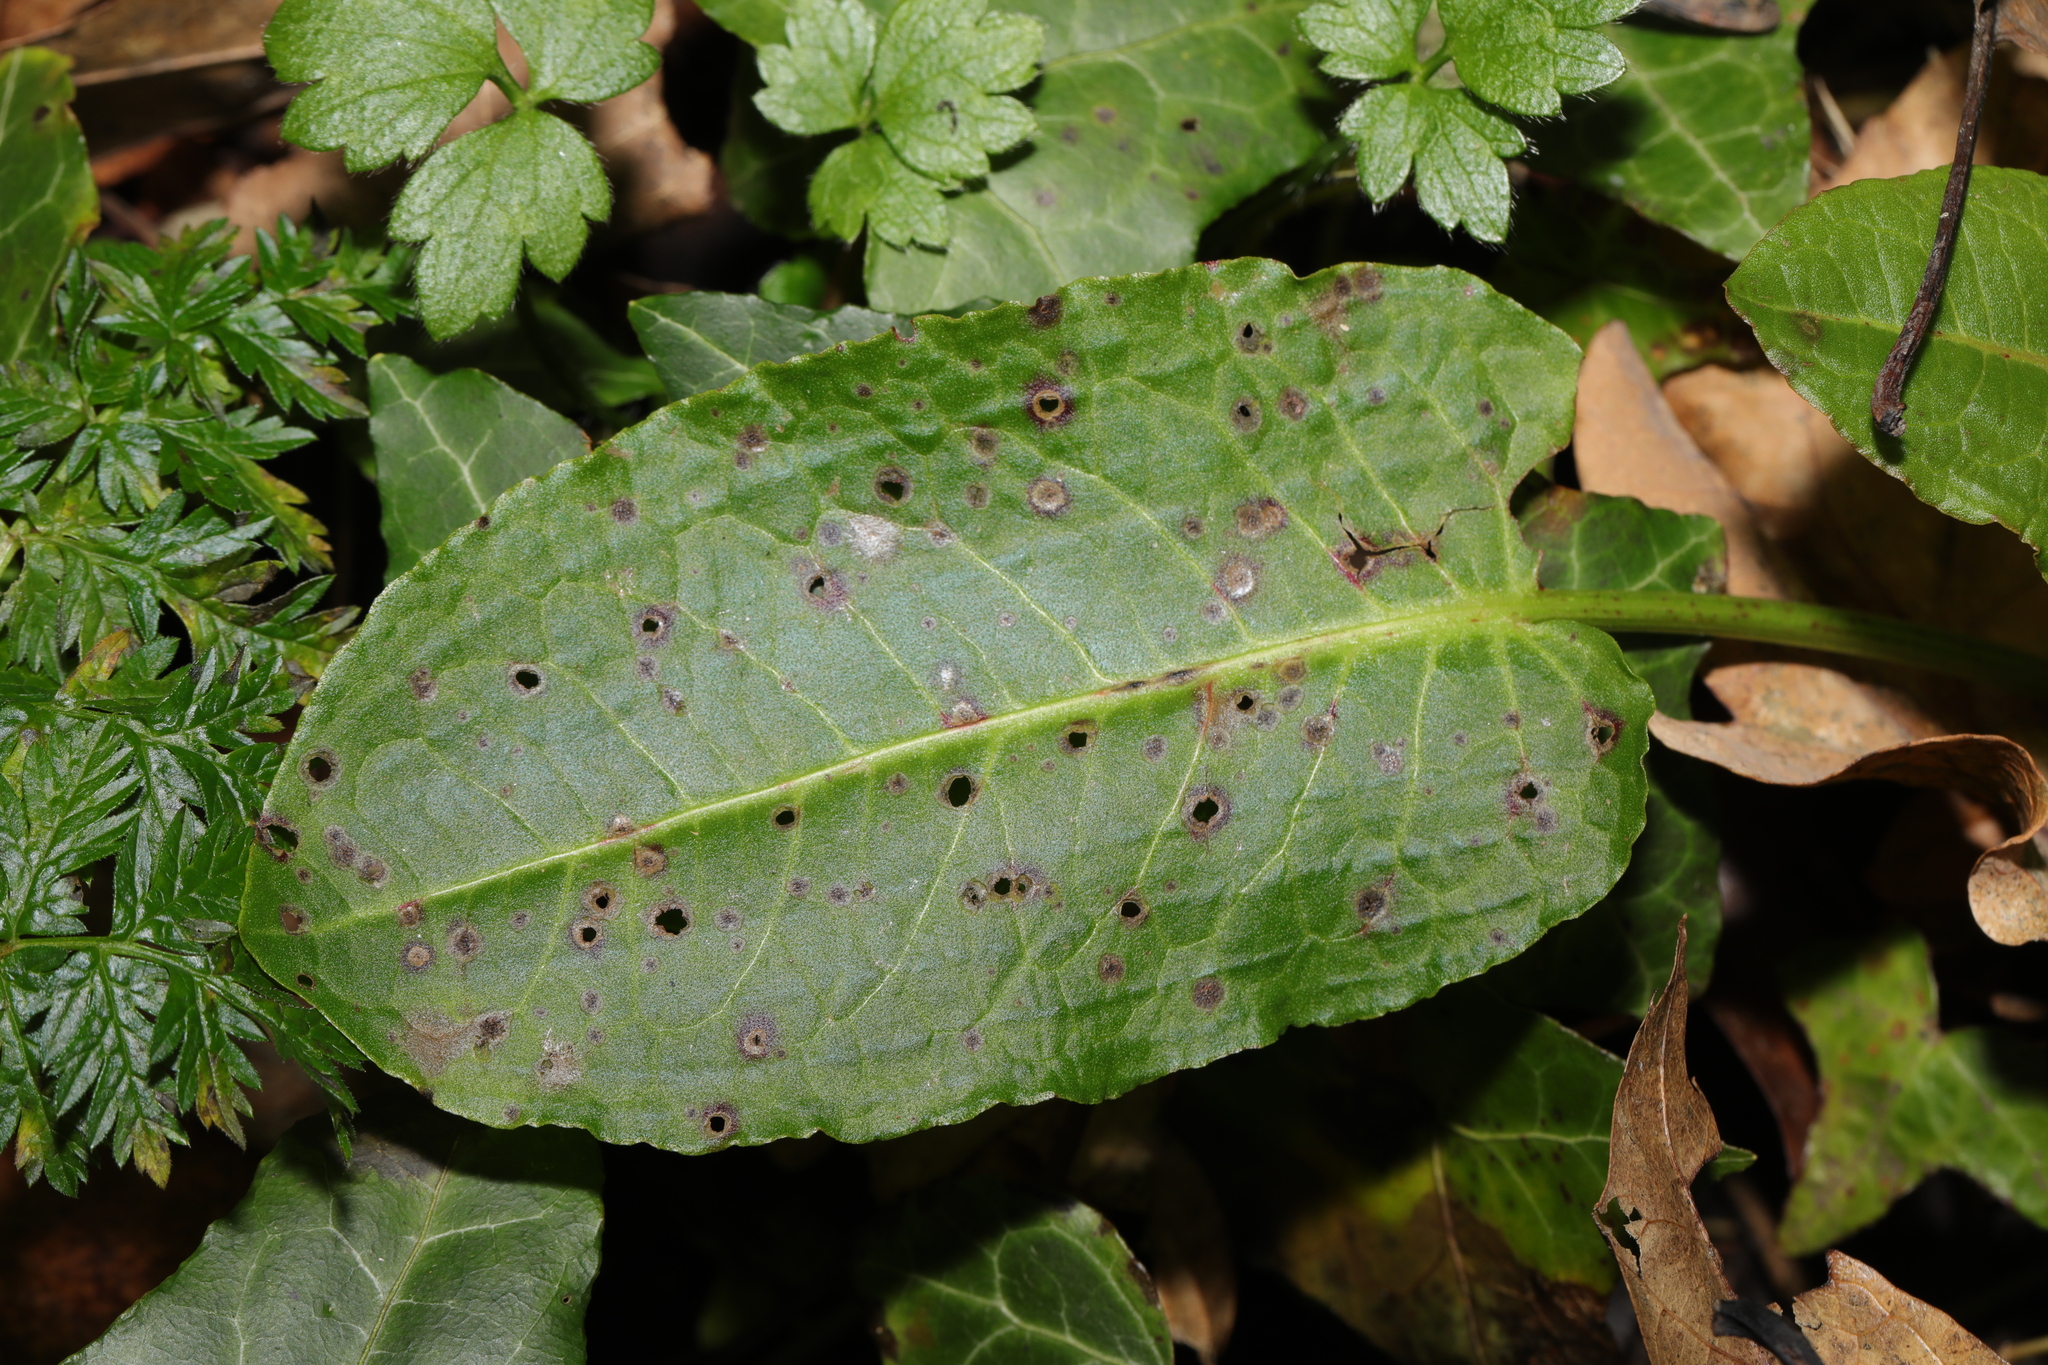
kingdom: Plantae
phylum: Tracheophyta
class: Magnoliopsida
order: Caryophyllales
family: Polygonaceae
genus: Rumex
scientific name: Rumex obtusifolius
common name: Bitter dock
